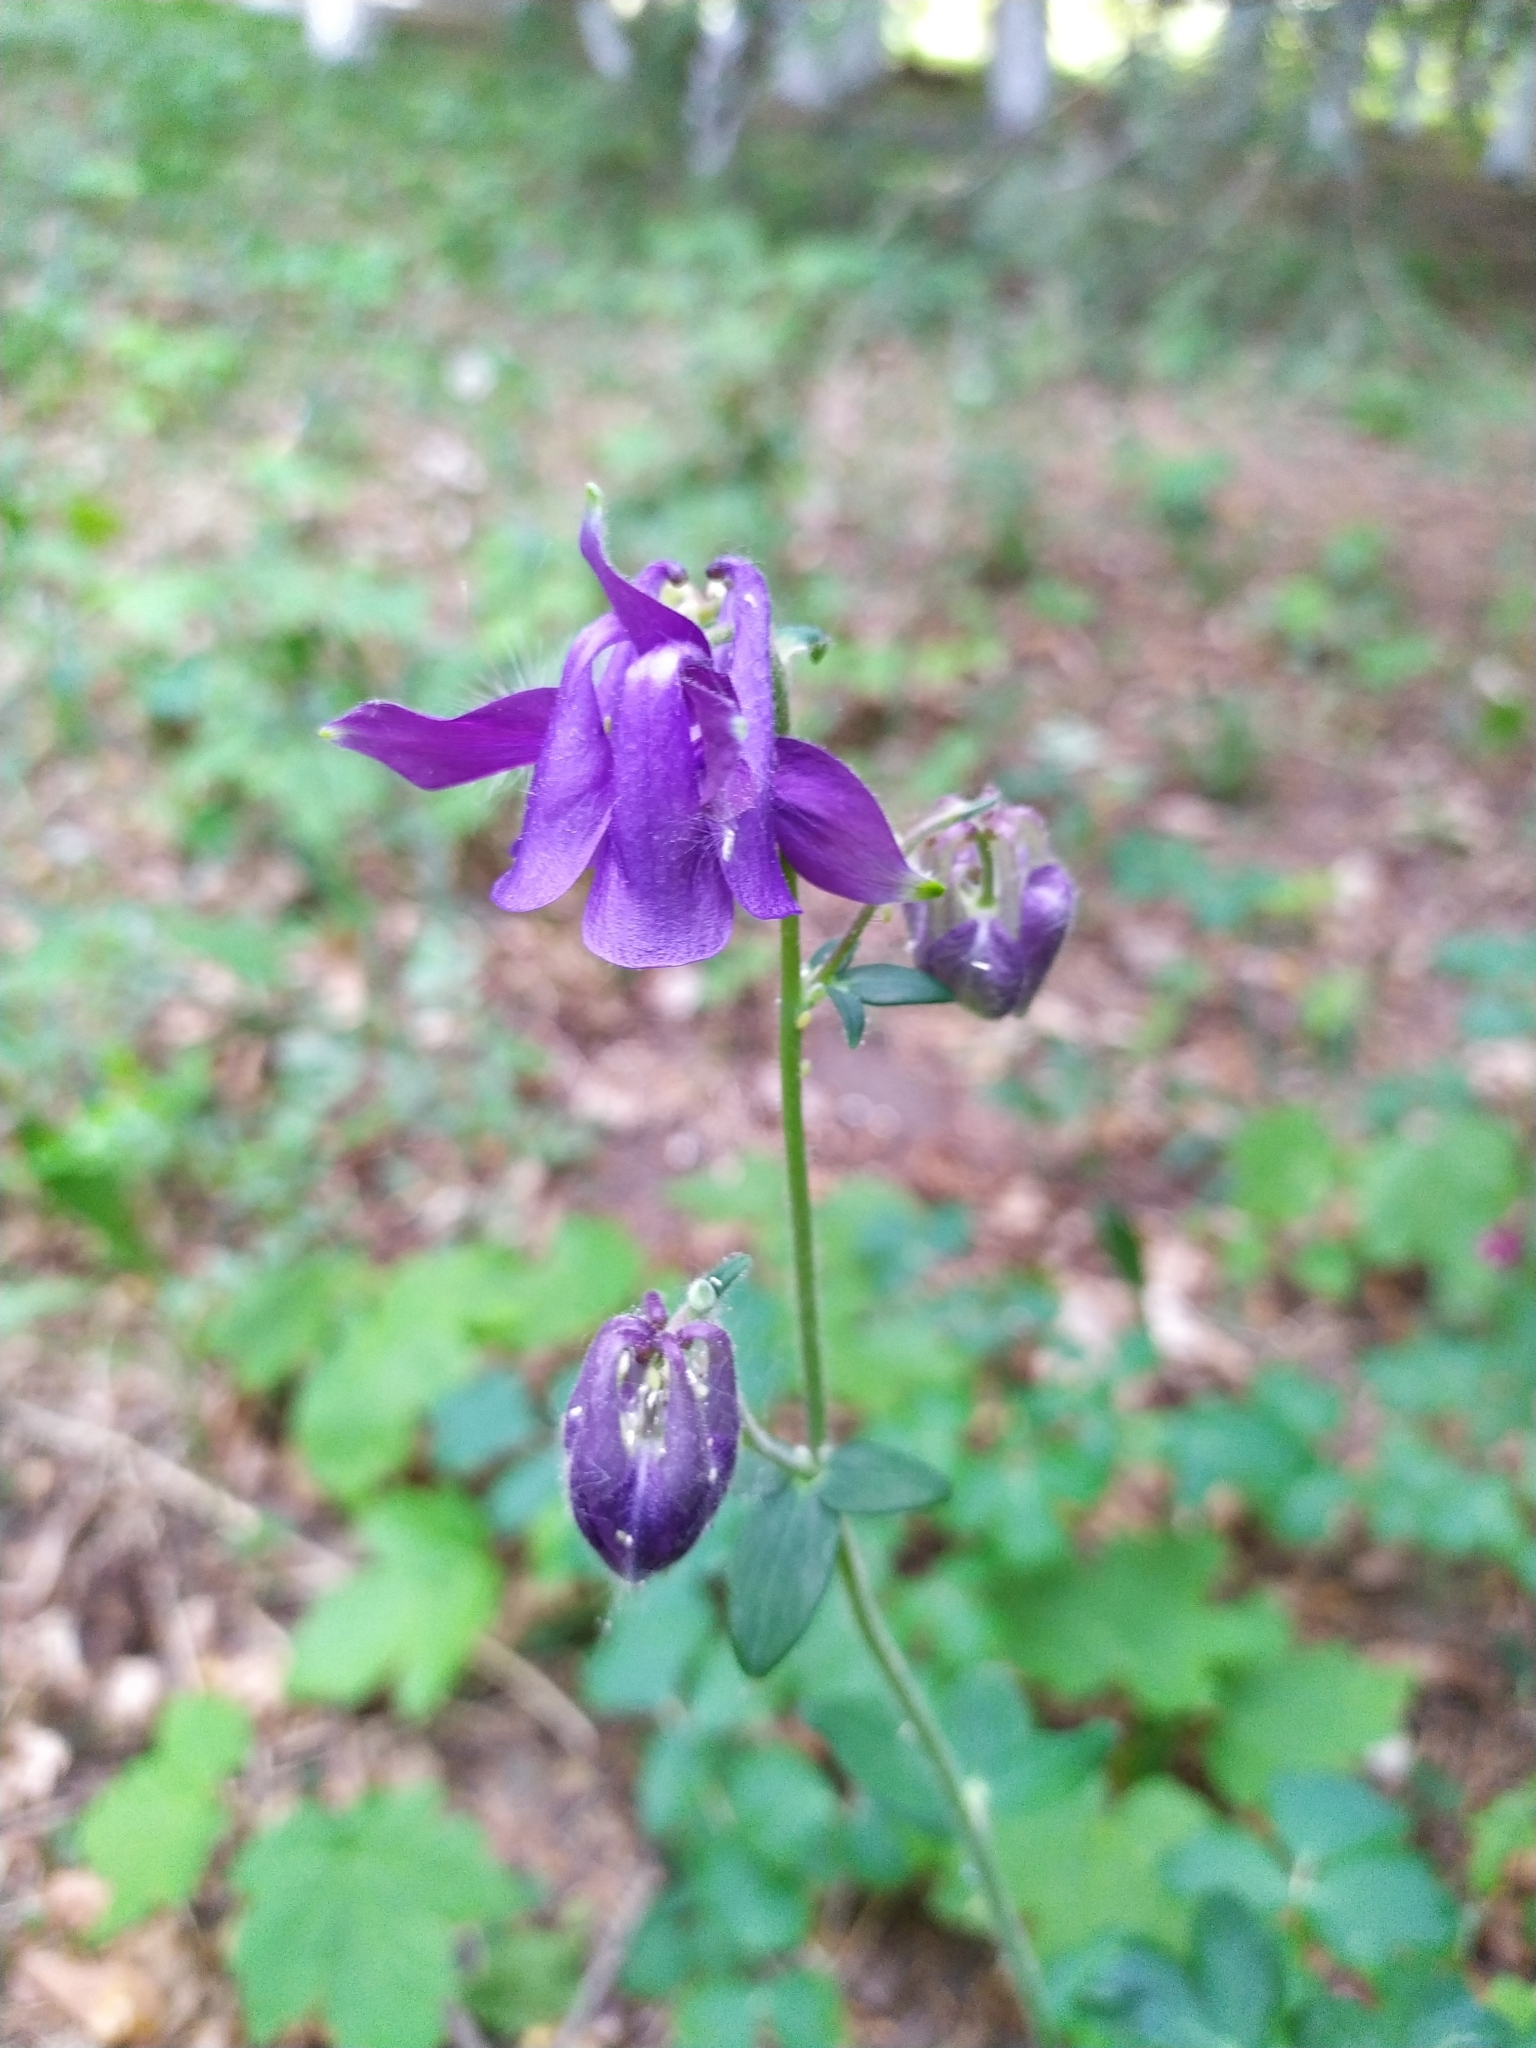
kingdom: Plantae
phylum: Tracheophyta
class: Magnoliopsida
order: Ranunculales
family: Ranunculaceae
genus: Aquilegia
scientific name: Aquilegia vulgaris
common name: Columbine
